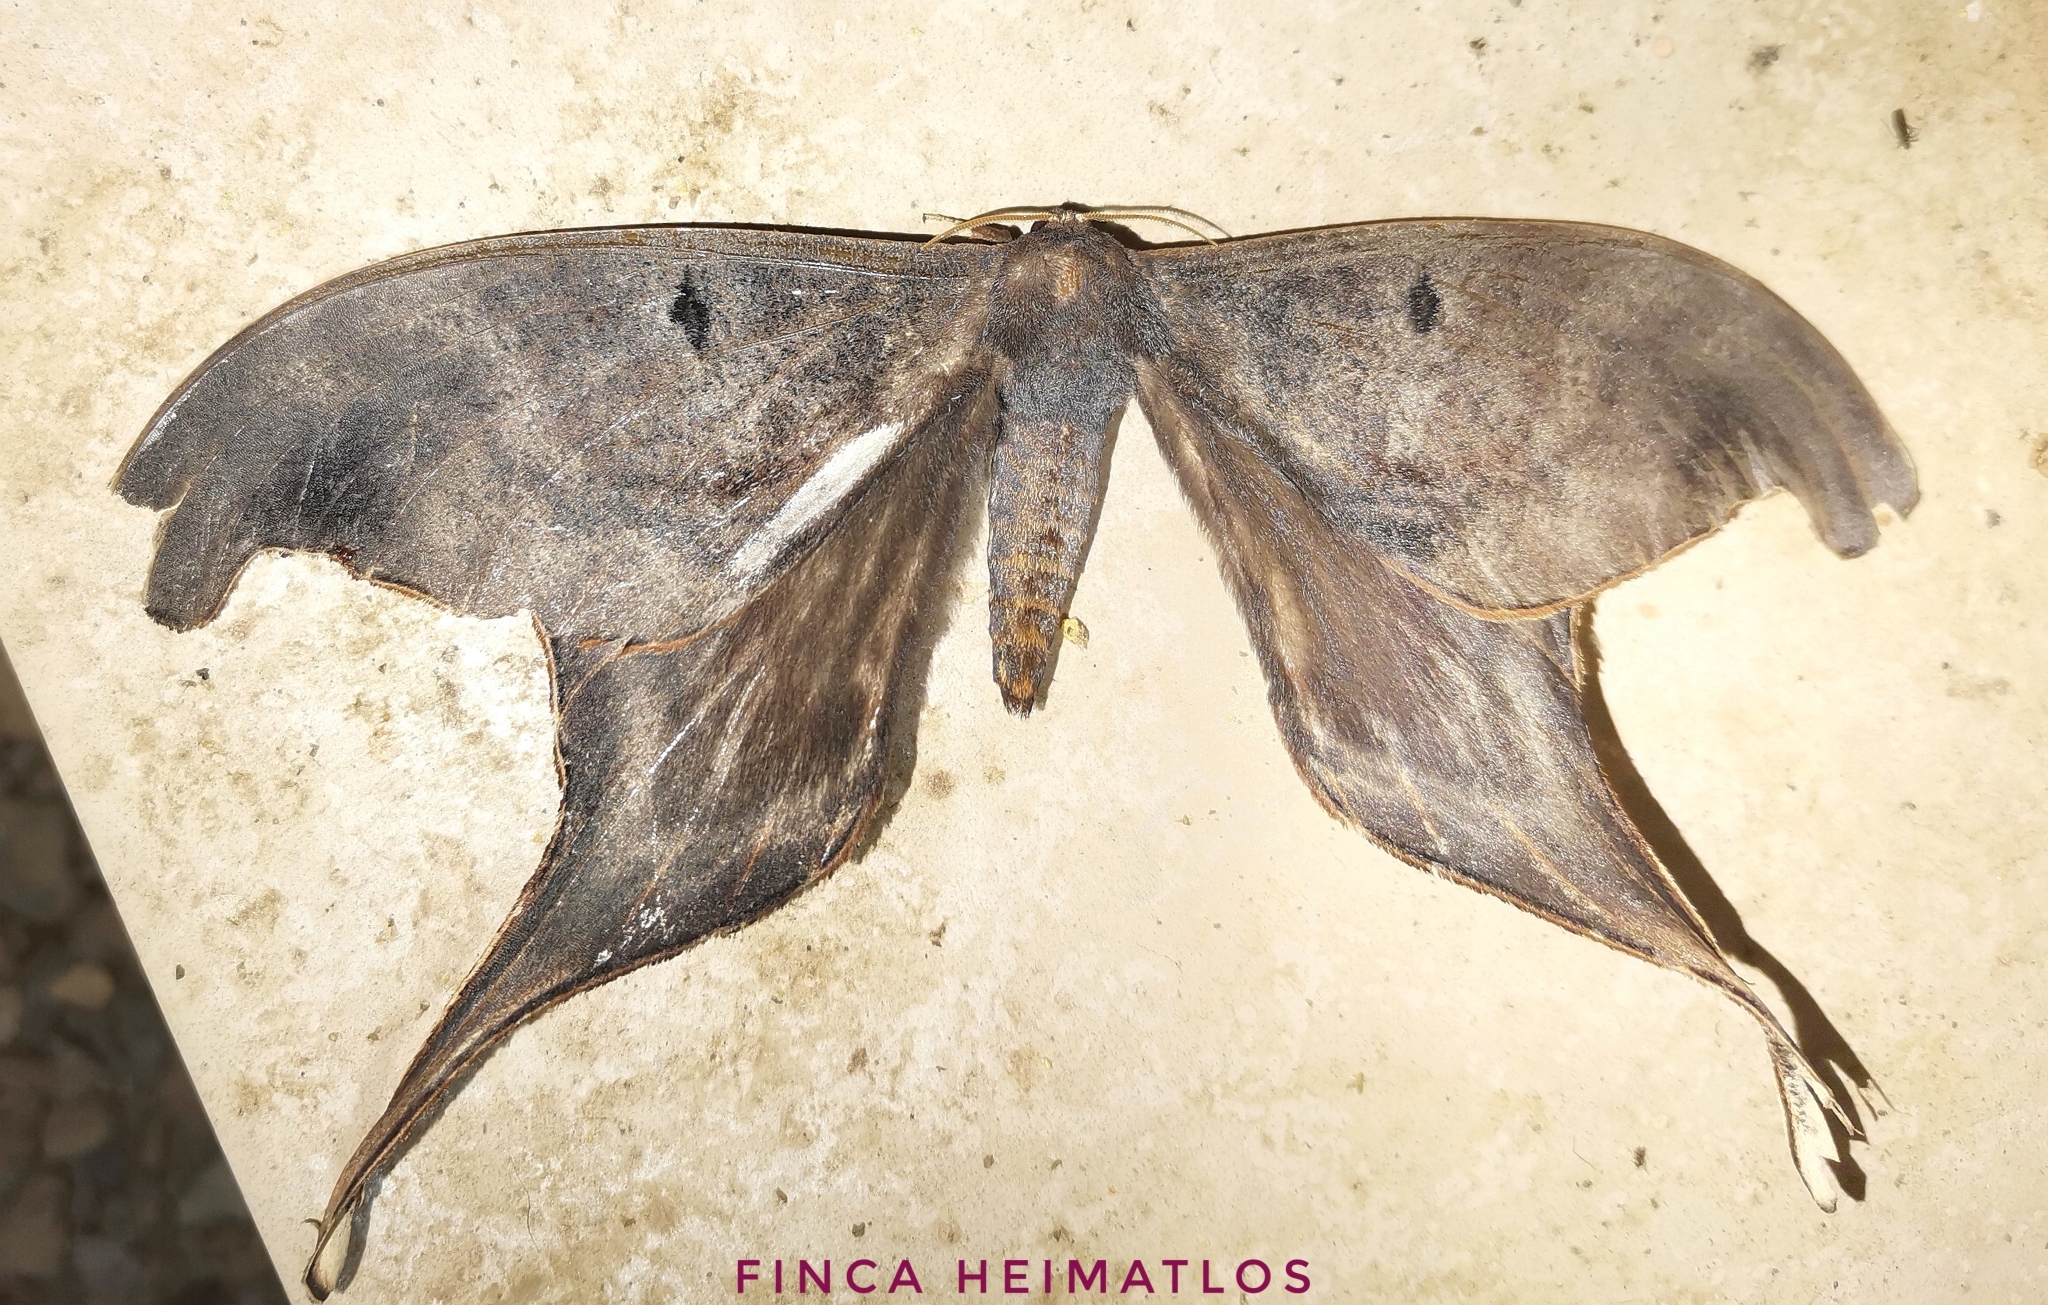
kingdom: Animalia
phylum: Arthropoda
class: Insecta
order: Lepidoptera
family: Saturniidae
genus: Paradaemonia
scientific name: Paradaemonia nycteris
